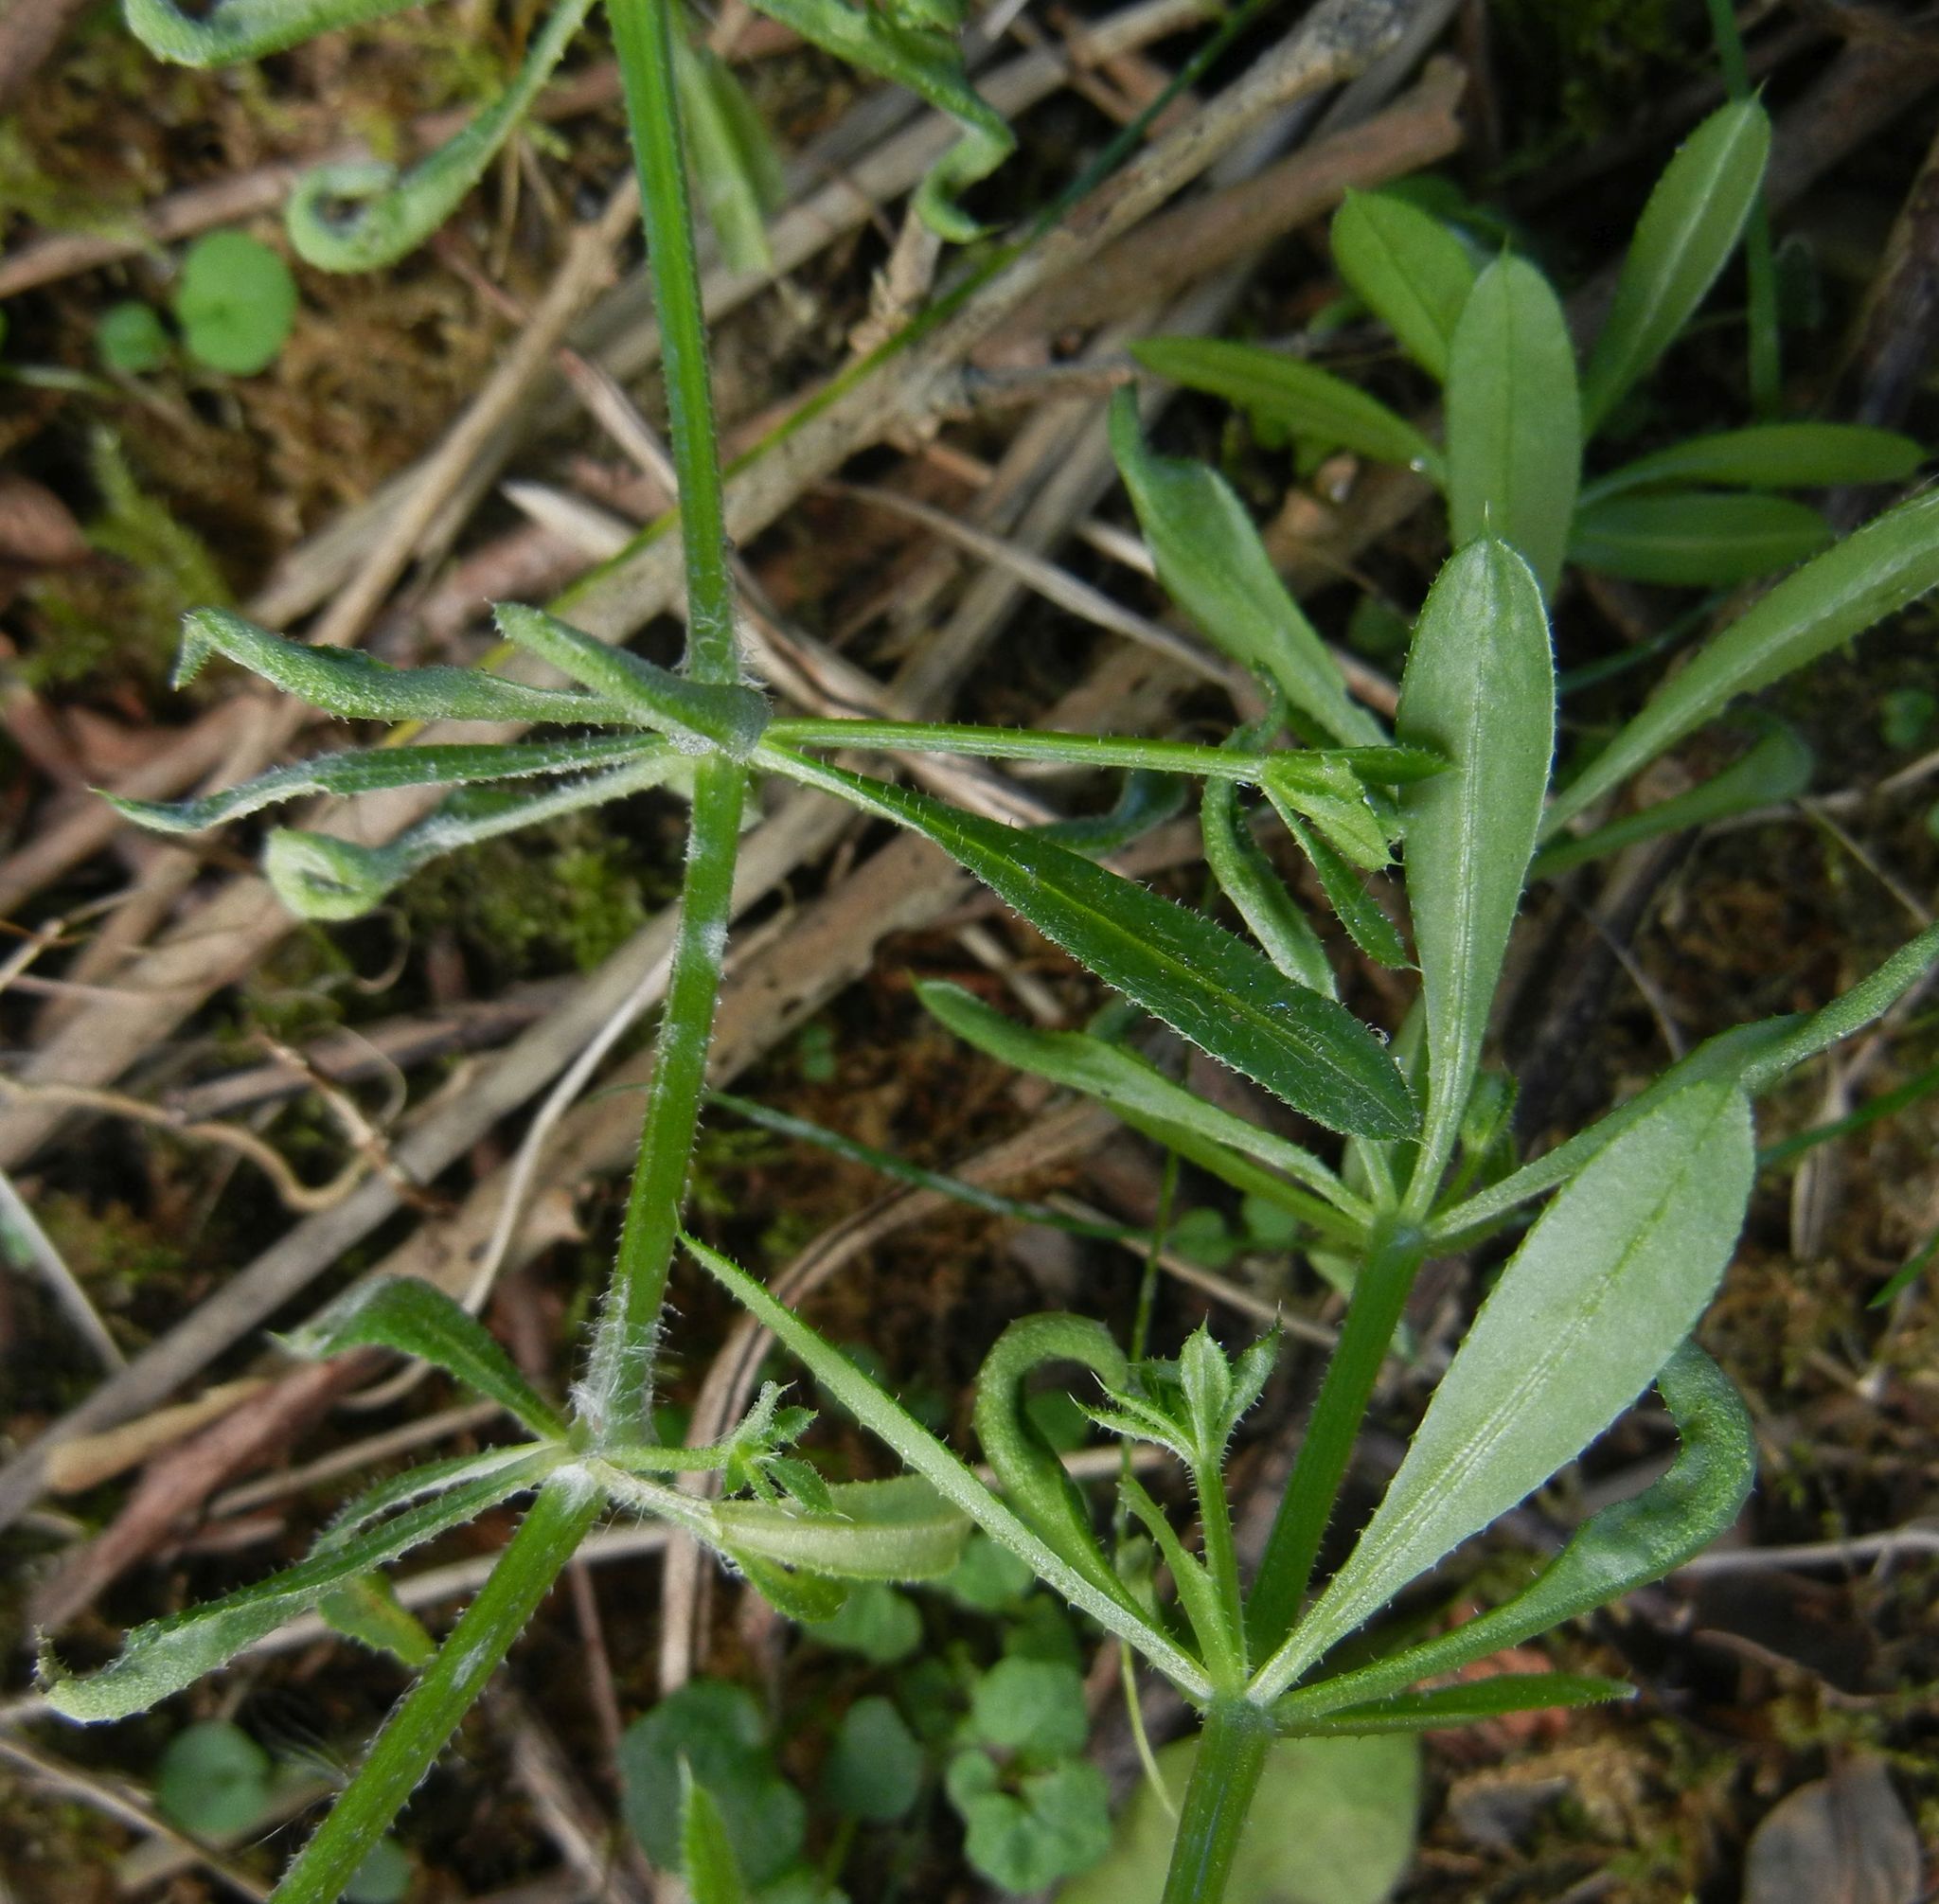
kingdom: Plantae
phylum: Tracheophyta
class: Magnoliopsida
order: Gentianales
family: Rubiaceae
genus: Galium
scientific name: Galium aparine
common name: Cleavers
